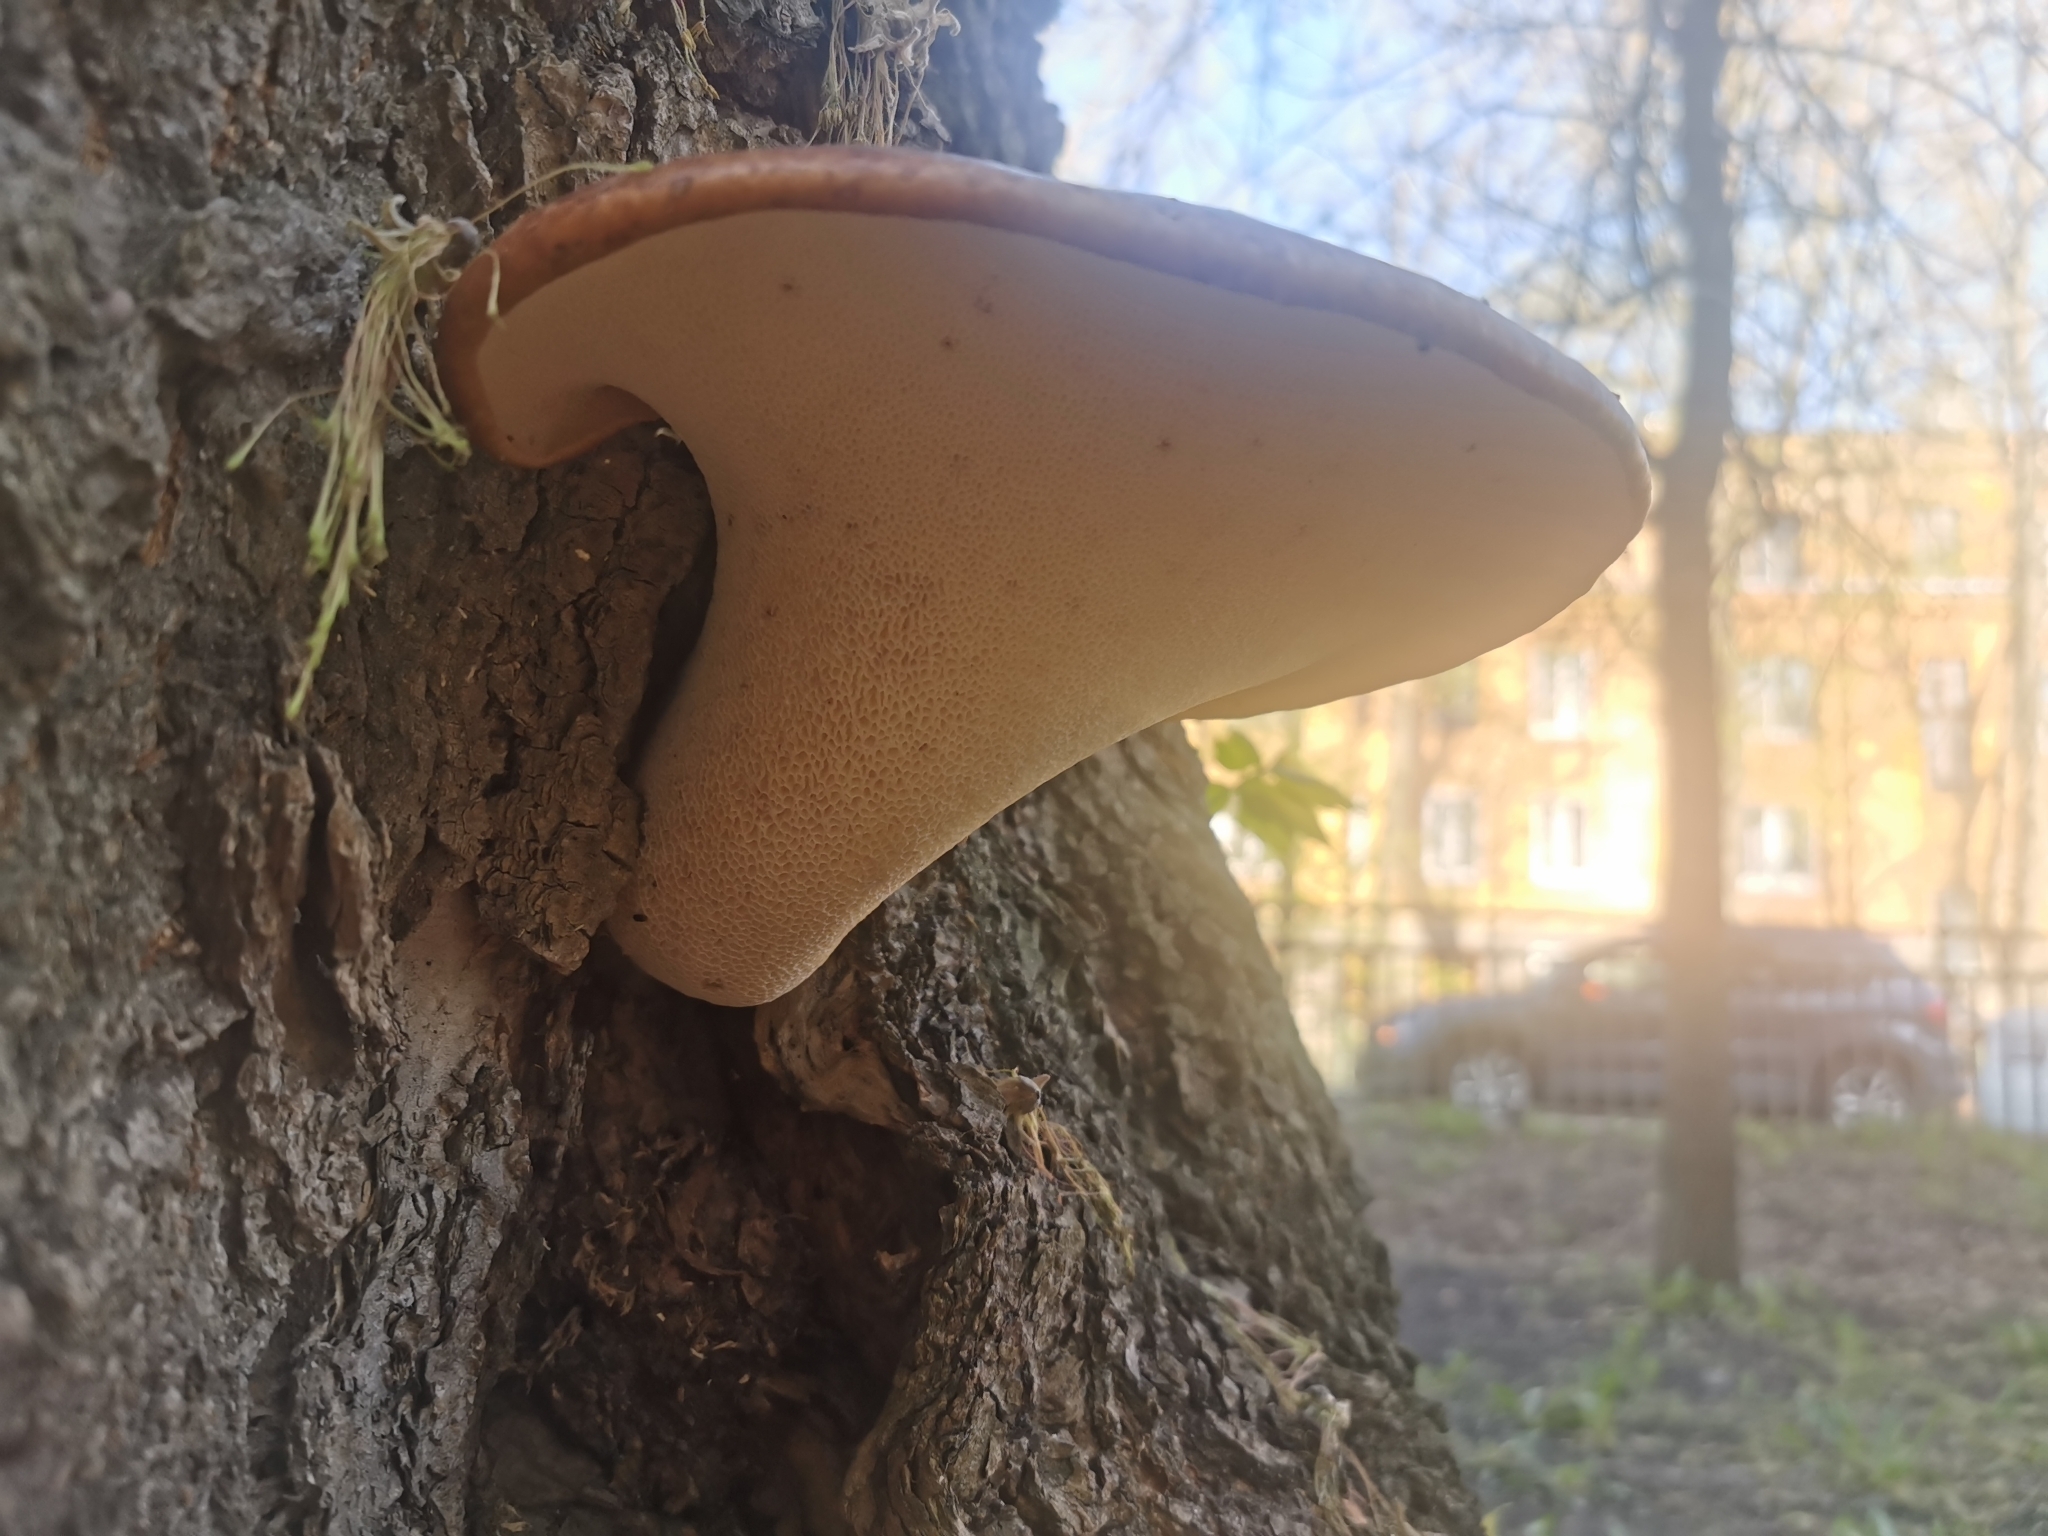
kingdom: Fungi
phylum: Basidiomycota
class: Agaricomycetes
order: Polyporales
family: Polyporaceae
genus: Cerioporus
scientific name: Cerioporus squamosus
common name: Dryad's saddle
